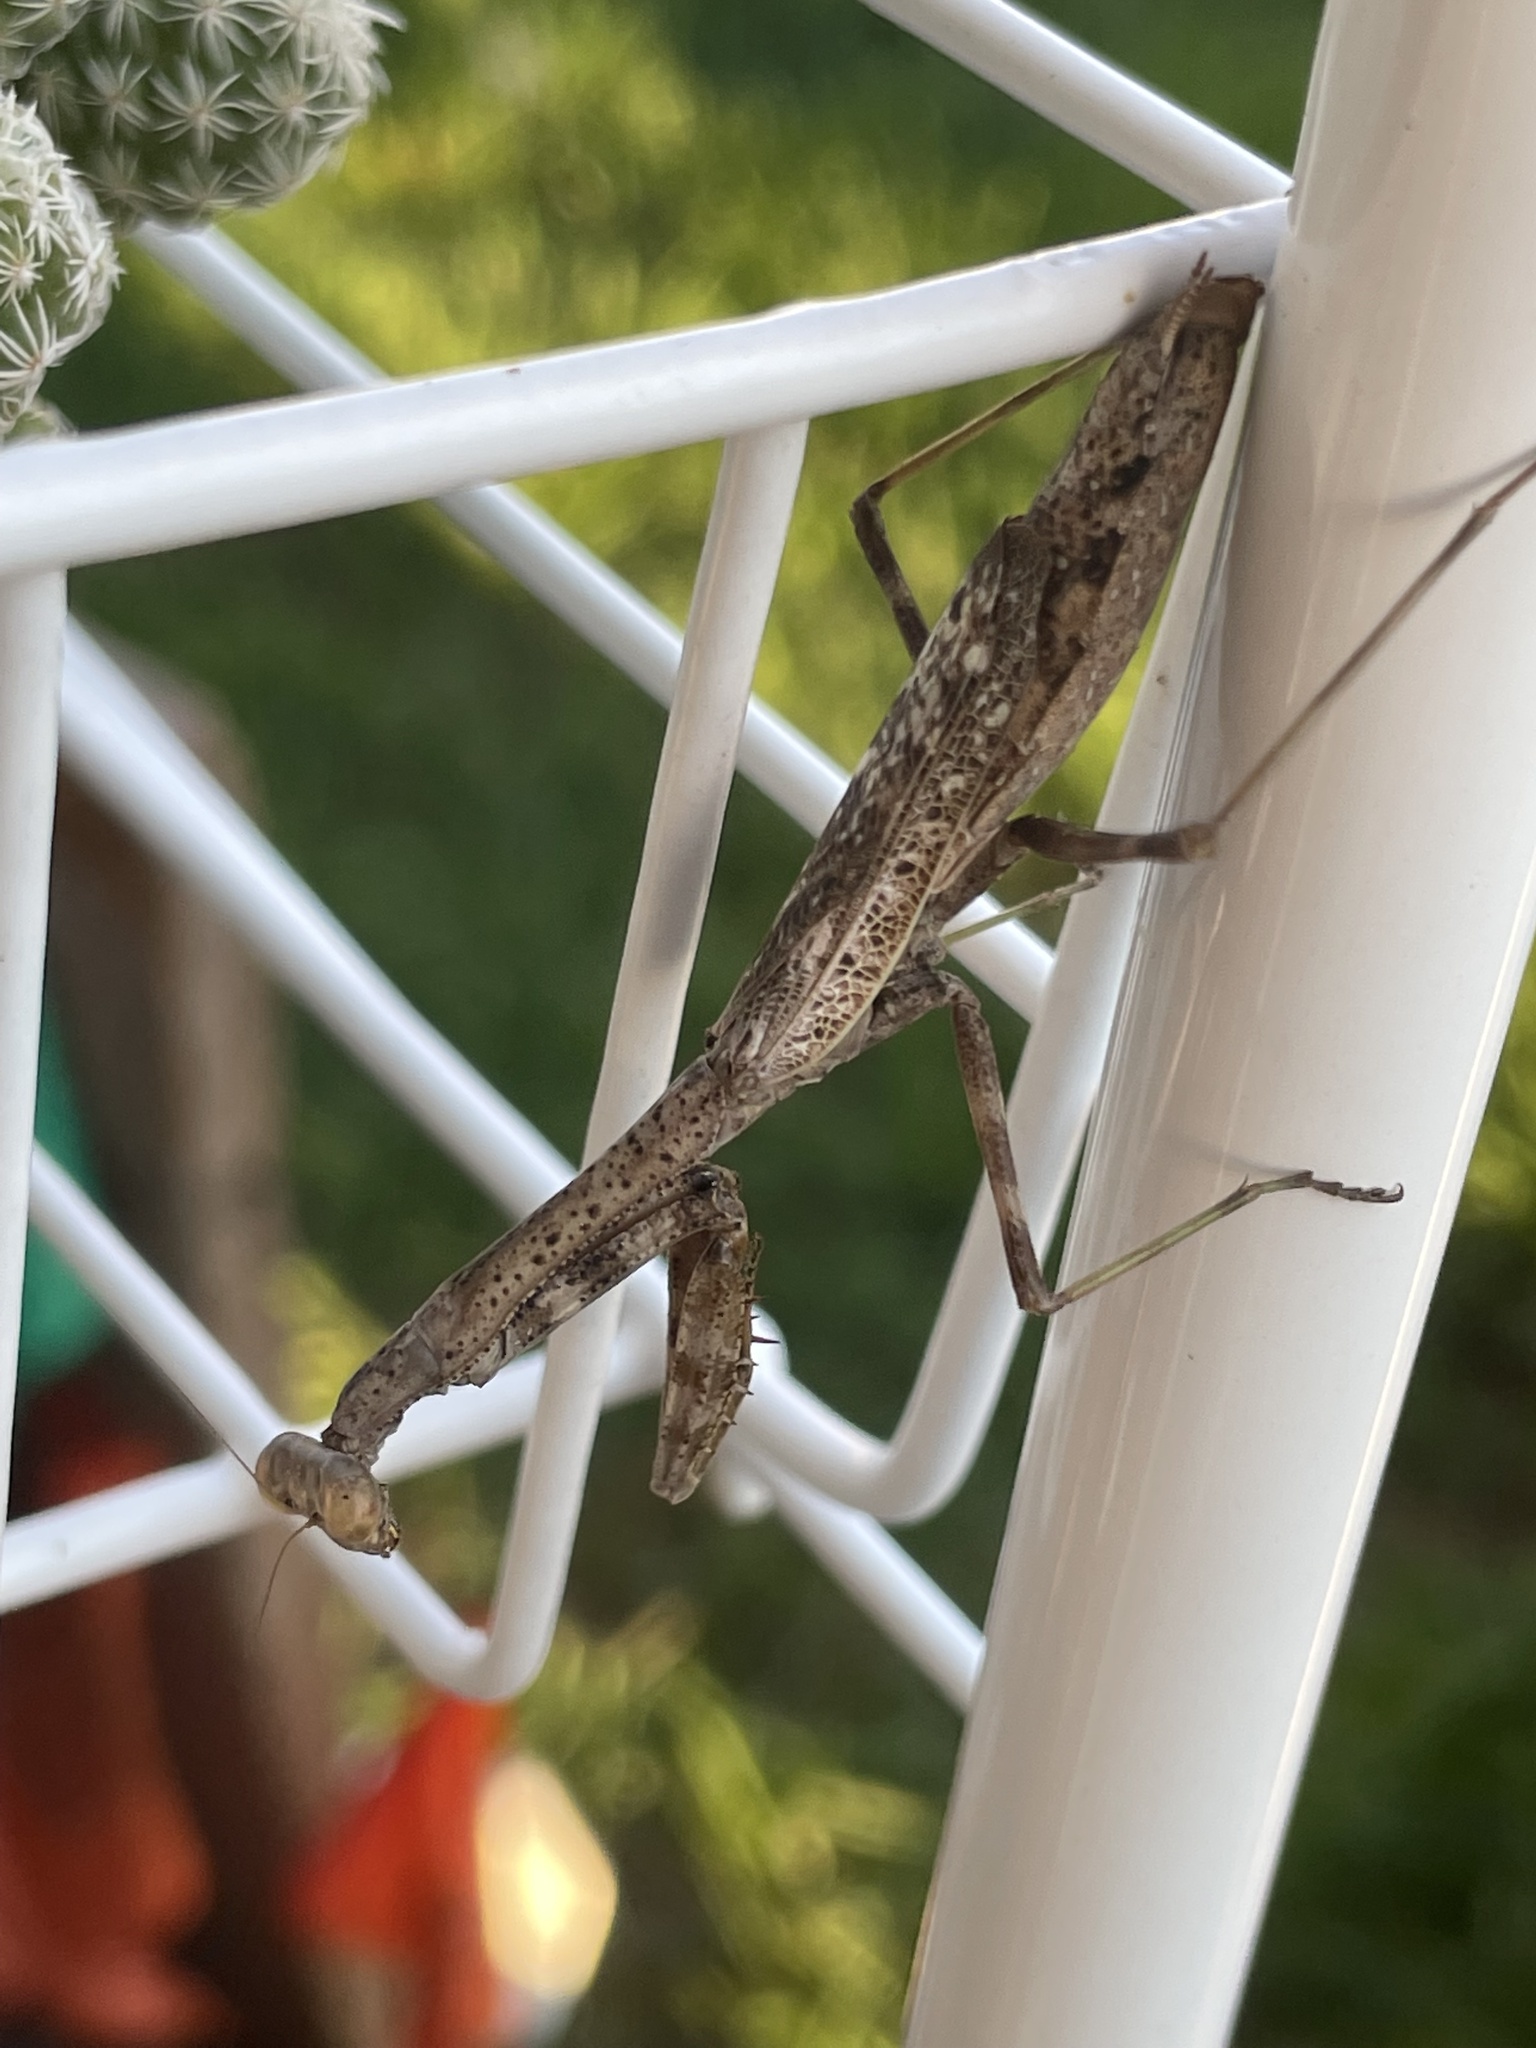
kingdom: Animalia
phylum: Arthropoda
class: Insecta
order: Mantodea
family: Mantidae
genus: Stagmomantis
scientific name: Stagmomantis carolina
